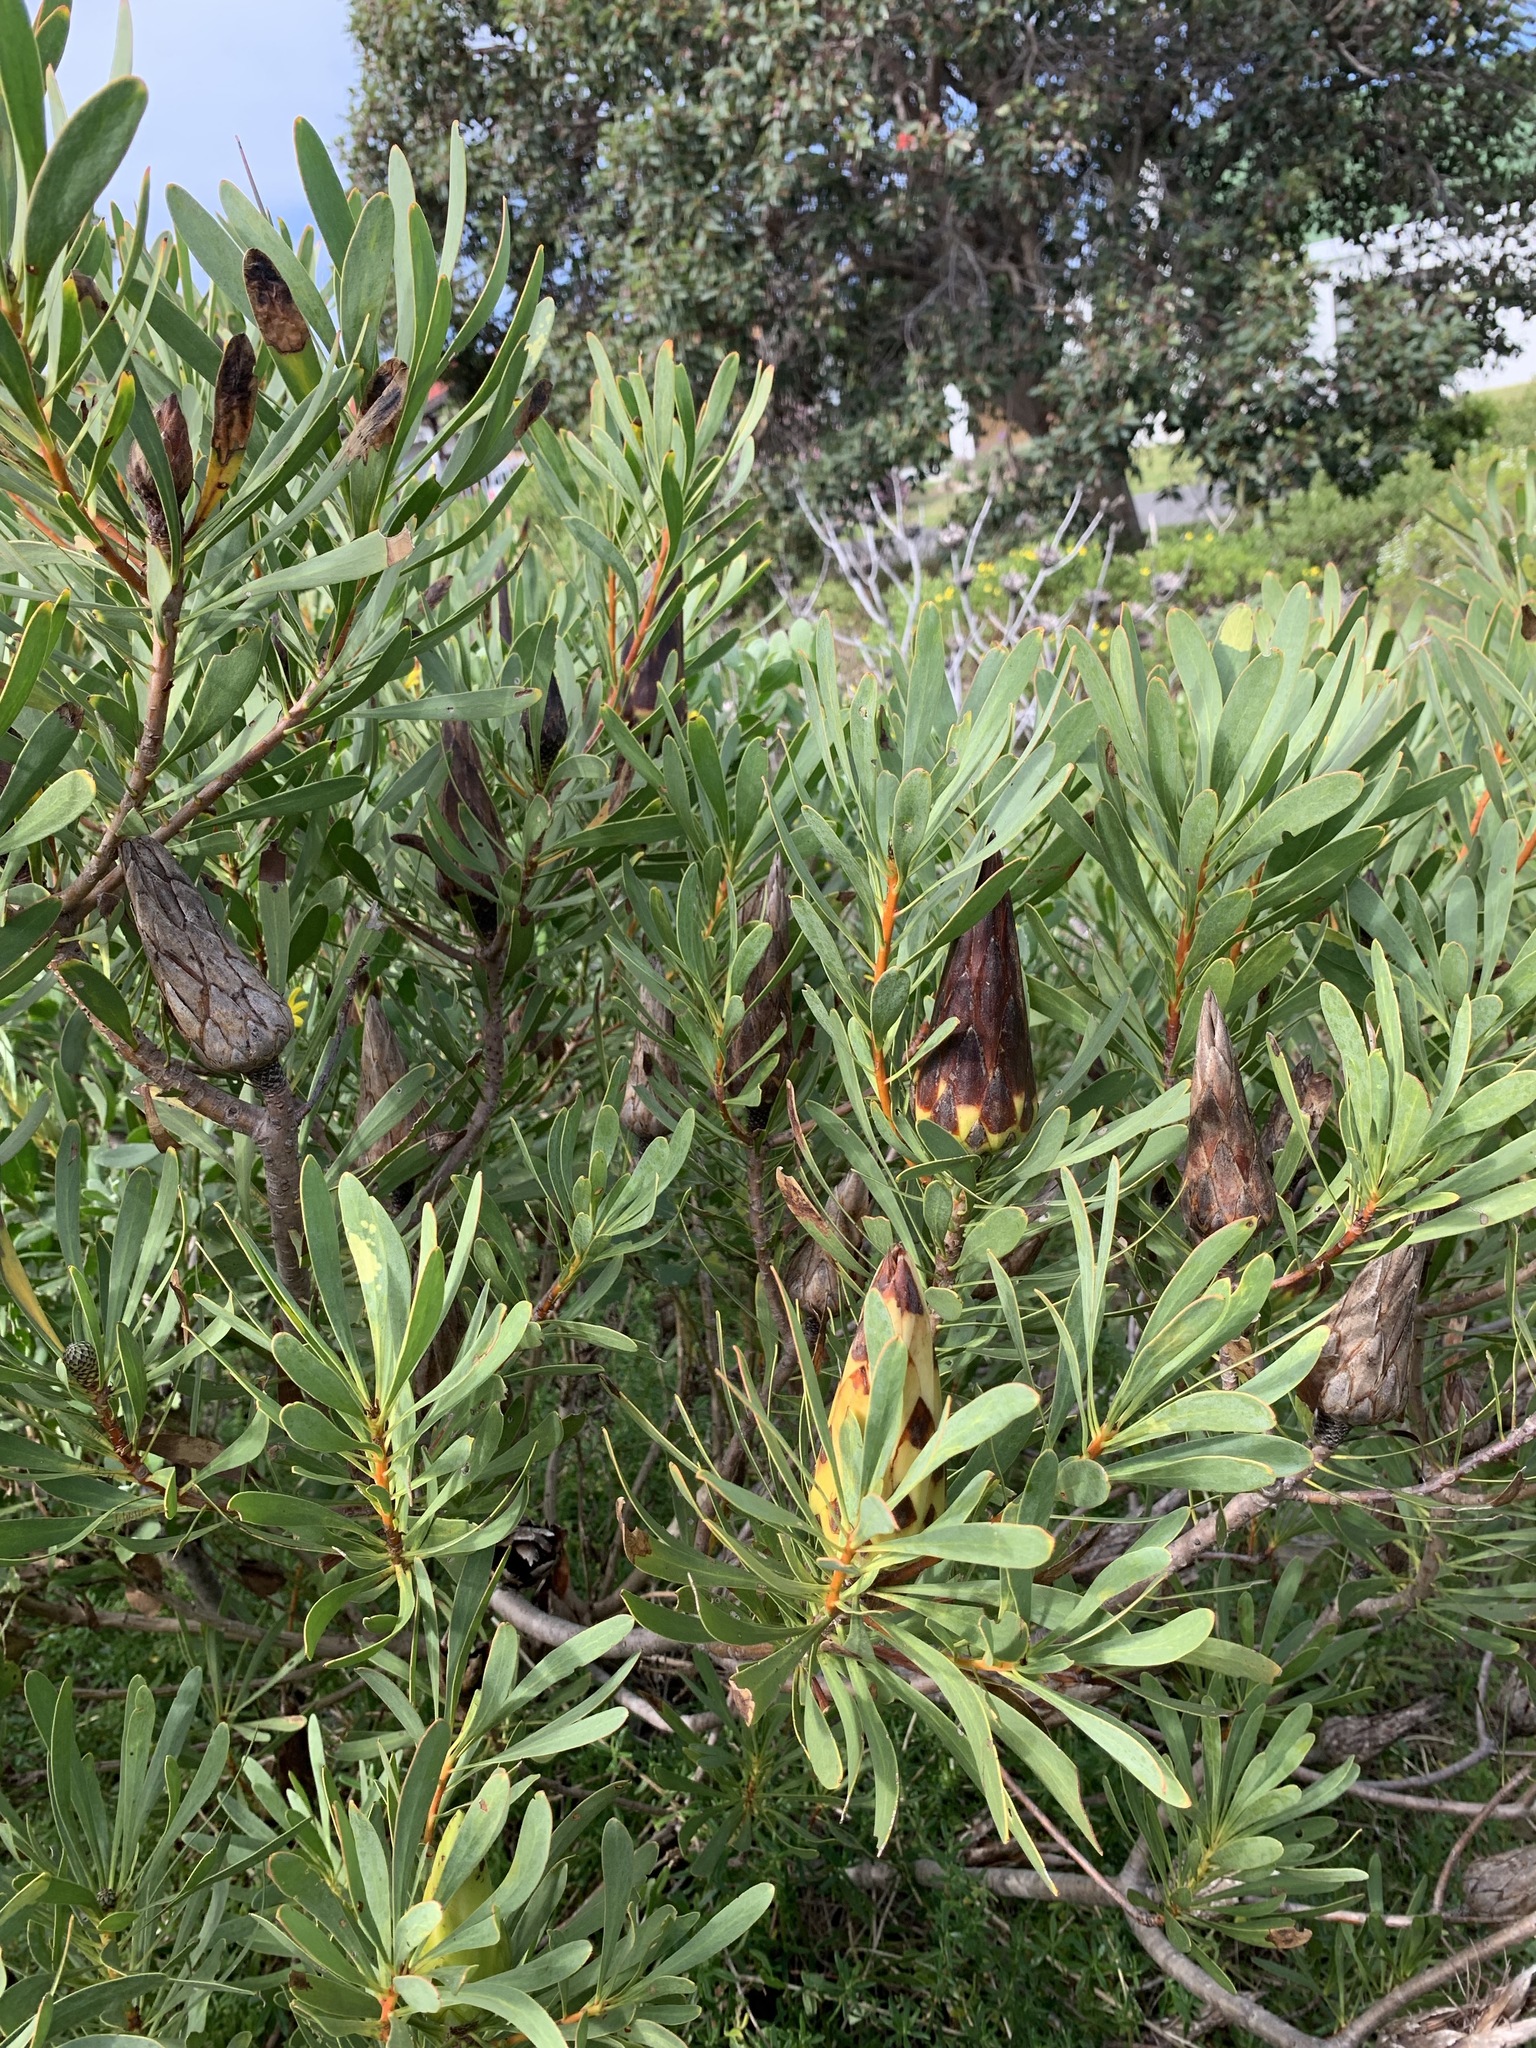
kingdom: Plantae
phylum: Tracheophyta
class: Magnoliopsida
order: Proteales
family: Proteaceae
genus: Protea
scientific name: Protea repens
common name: Sugarbush
